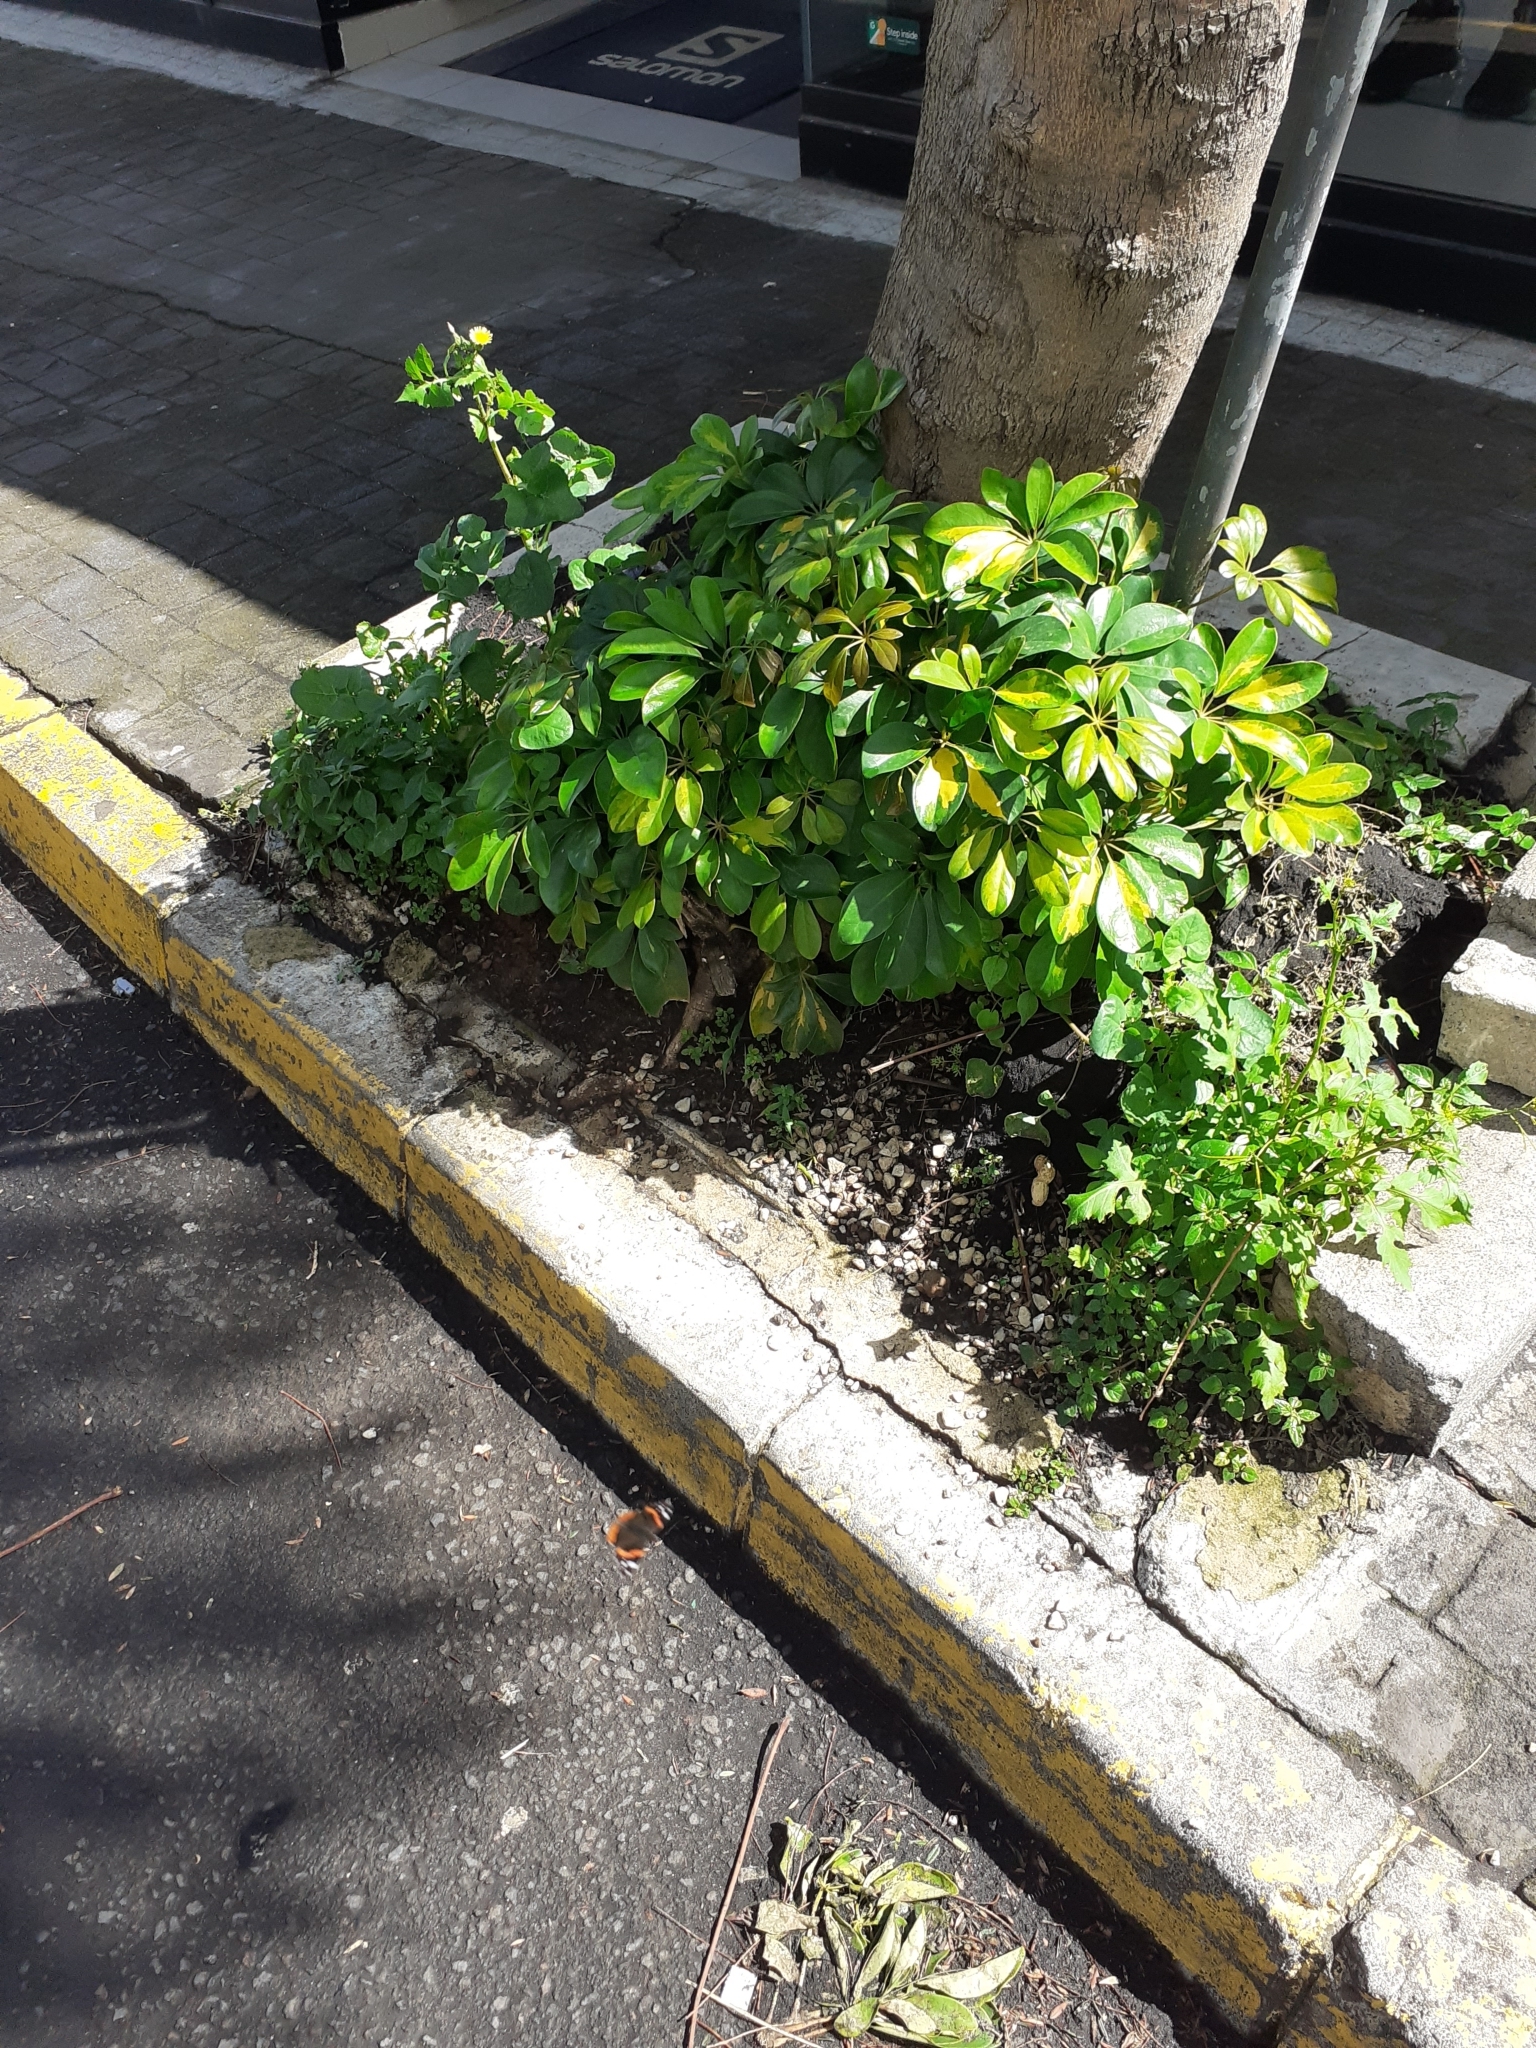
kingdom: Animalia
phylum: Arthropoda
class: Insecta
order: Lepidoptera
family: Nymphalidae
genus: Vanessa
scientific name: Vanessa atalanta
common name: Red admiral
